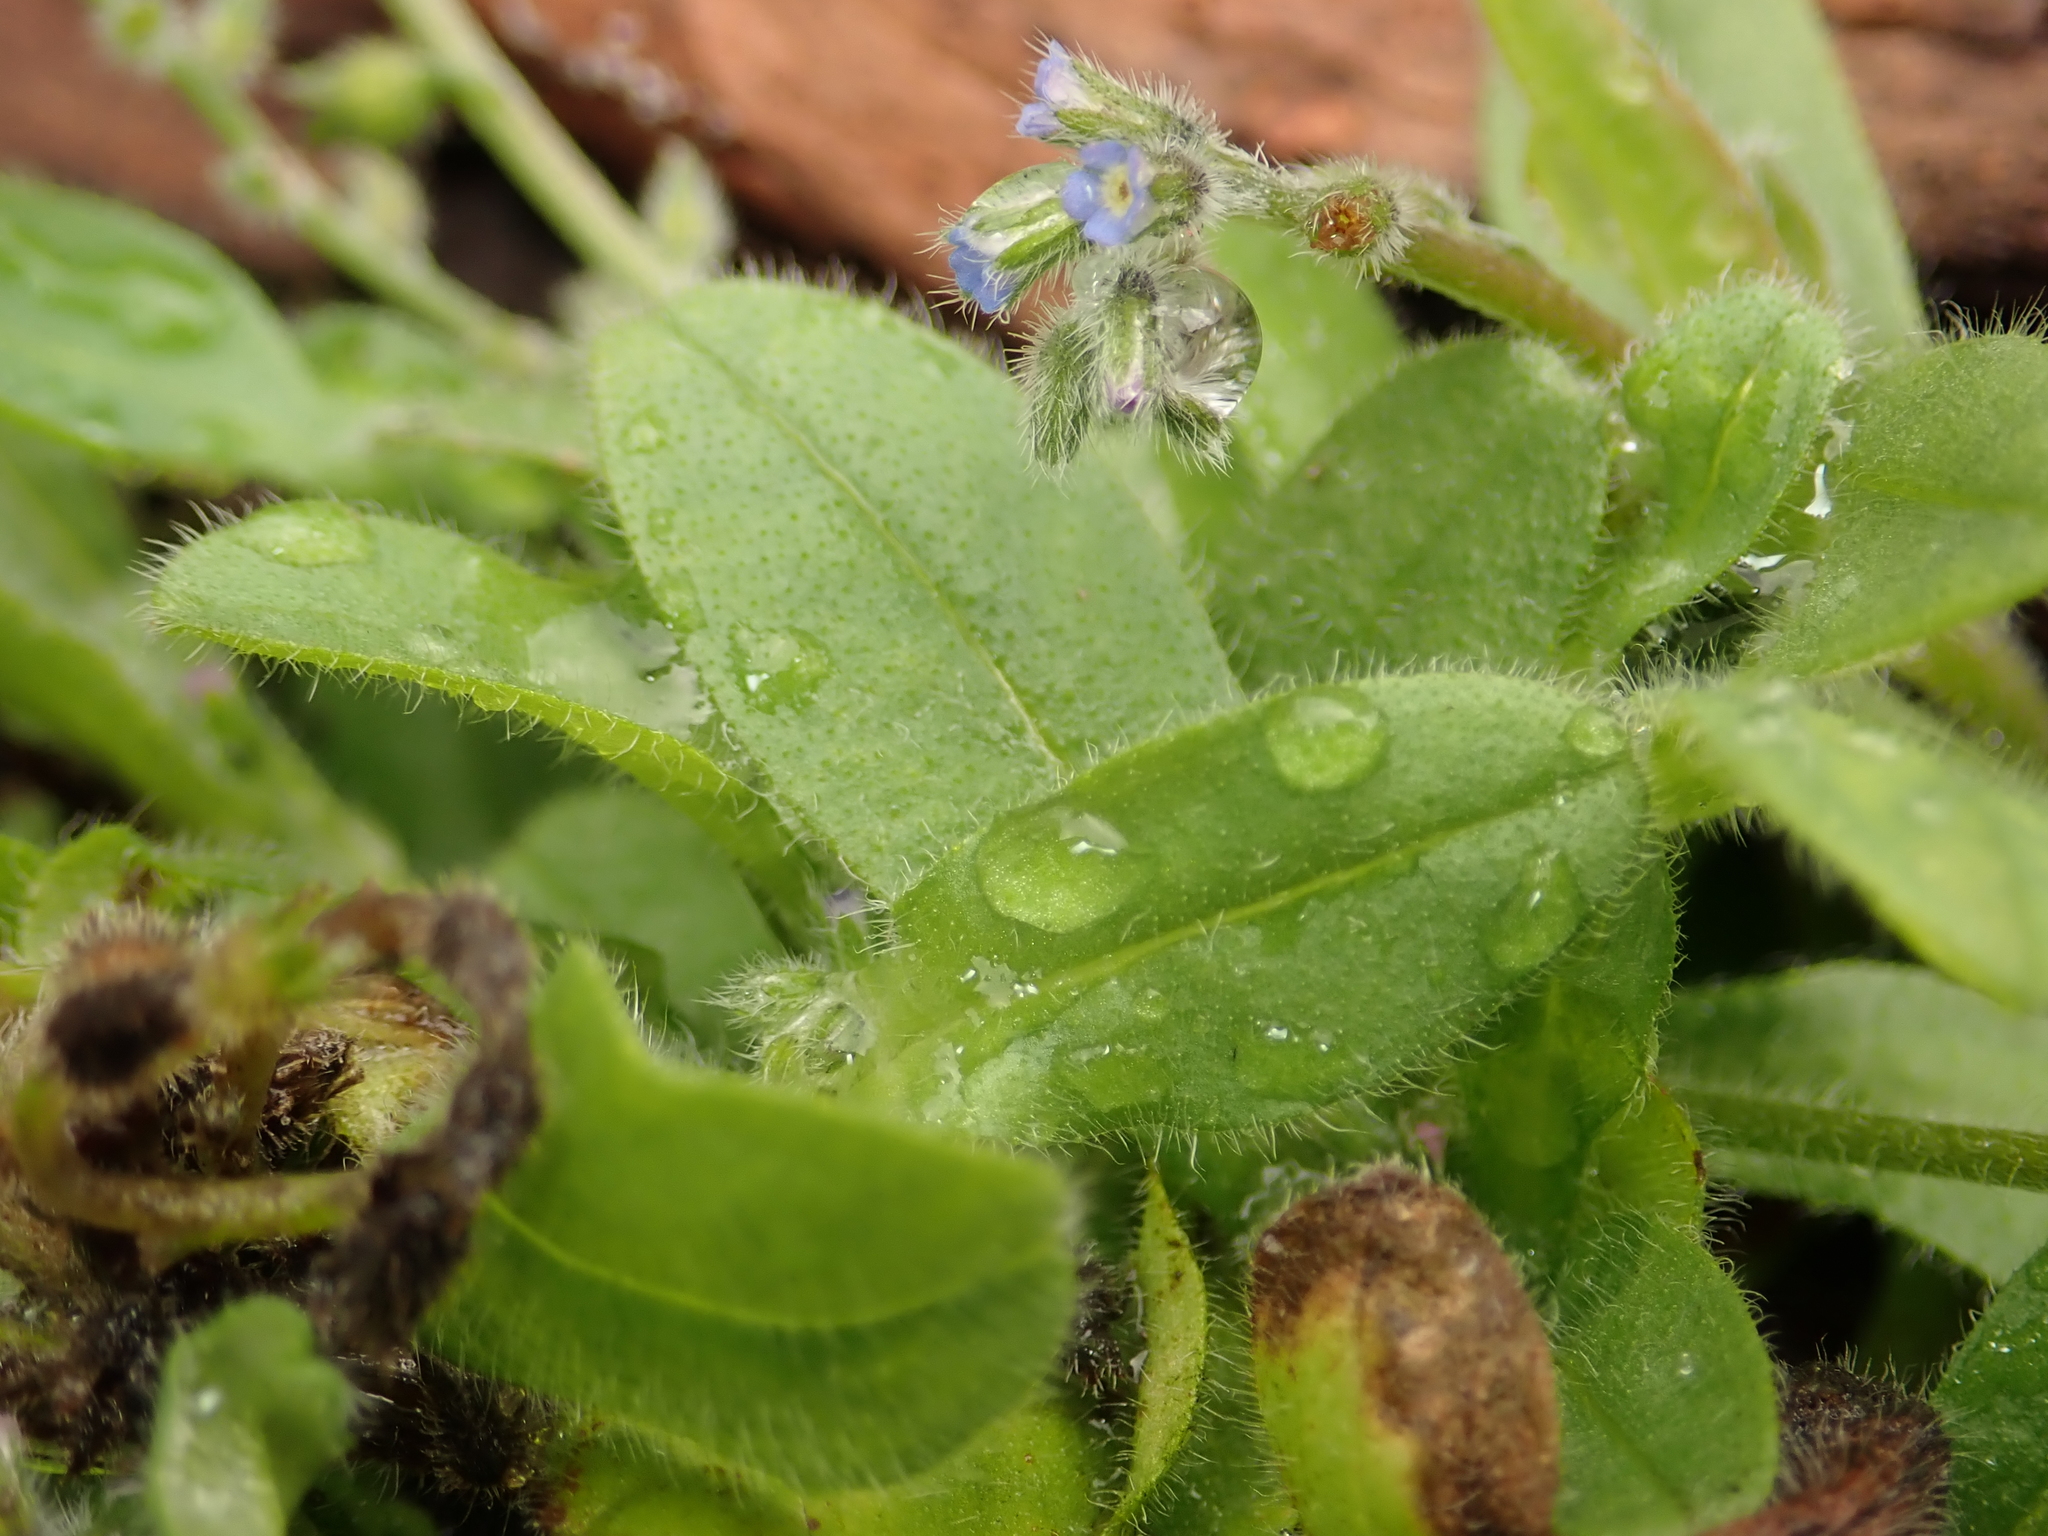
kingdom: Plantae
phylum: Tracheophyta
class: Magnoliopsida
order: Boraginales
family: Boraginaceae
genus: Myosotis
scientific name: Myosotis arvensis
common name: Field forget-me-not
